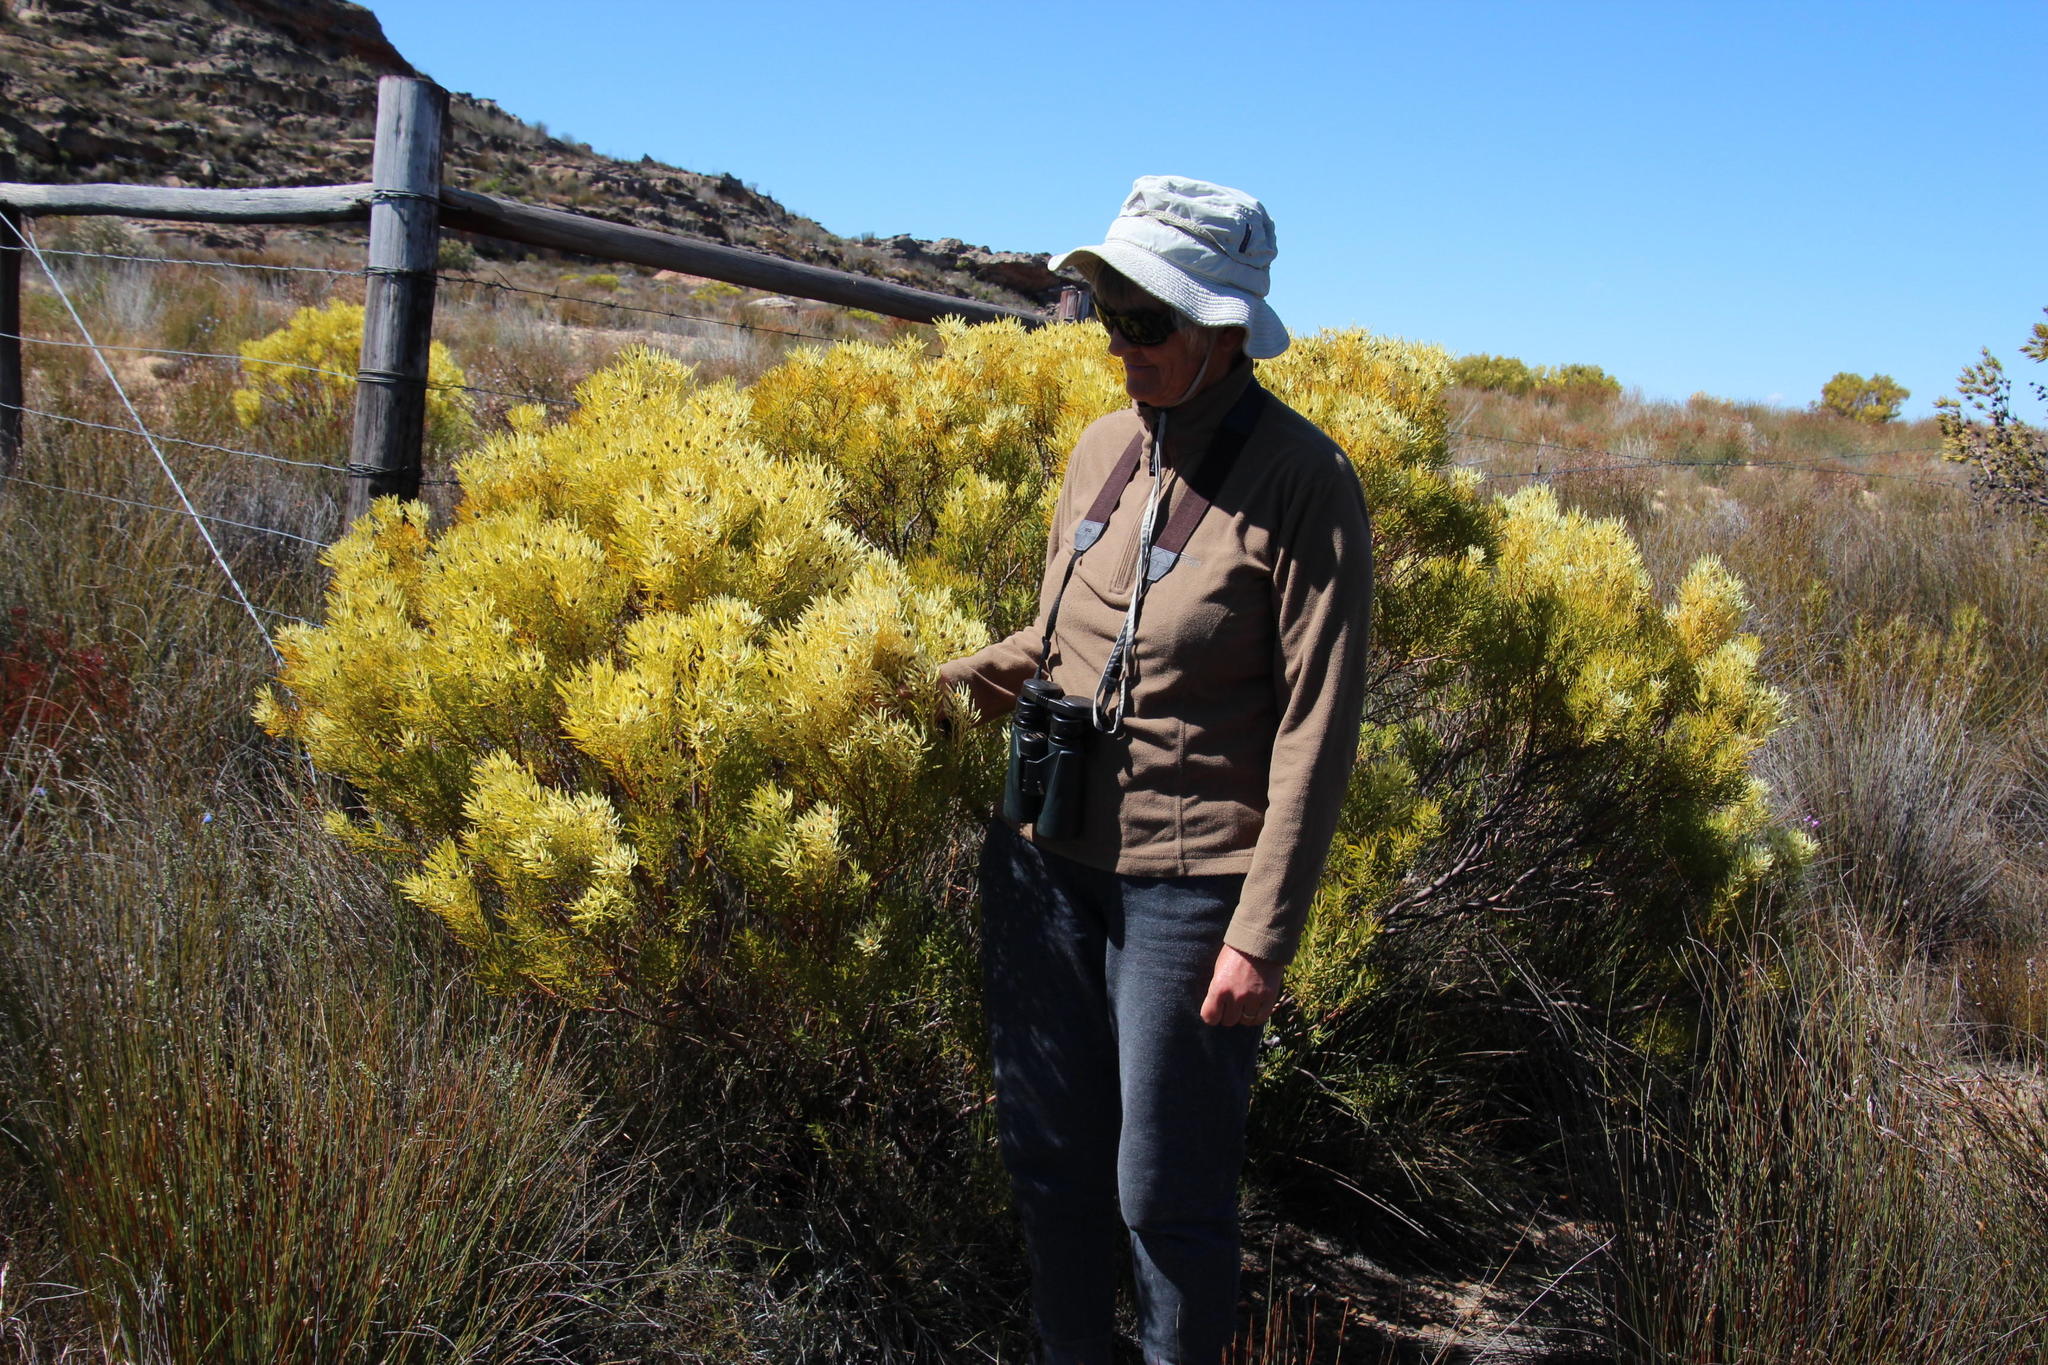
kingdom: Plantae
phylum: Tracheophyta
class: Magnoliopsida
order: Proteales
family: Proteaceae
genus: Leucadendron
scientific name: Leucadendron salignum
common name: Common sunshine conebush
